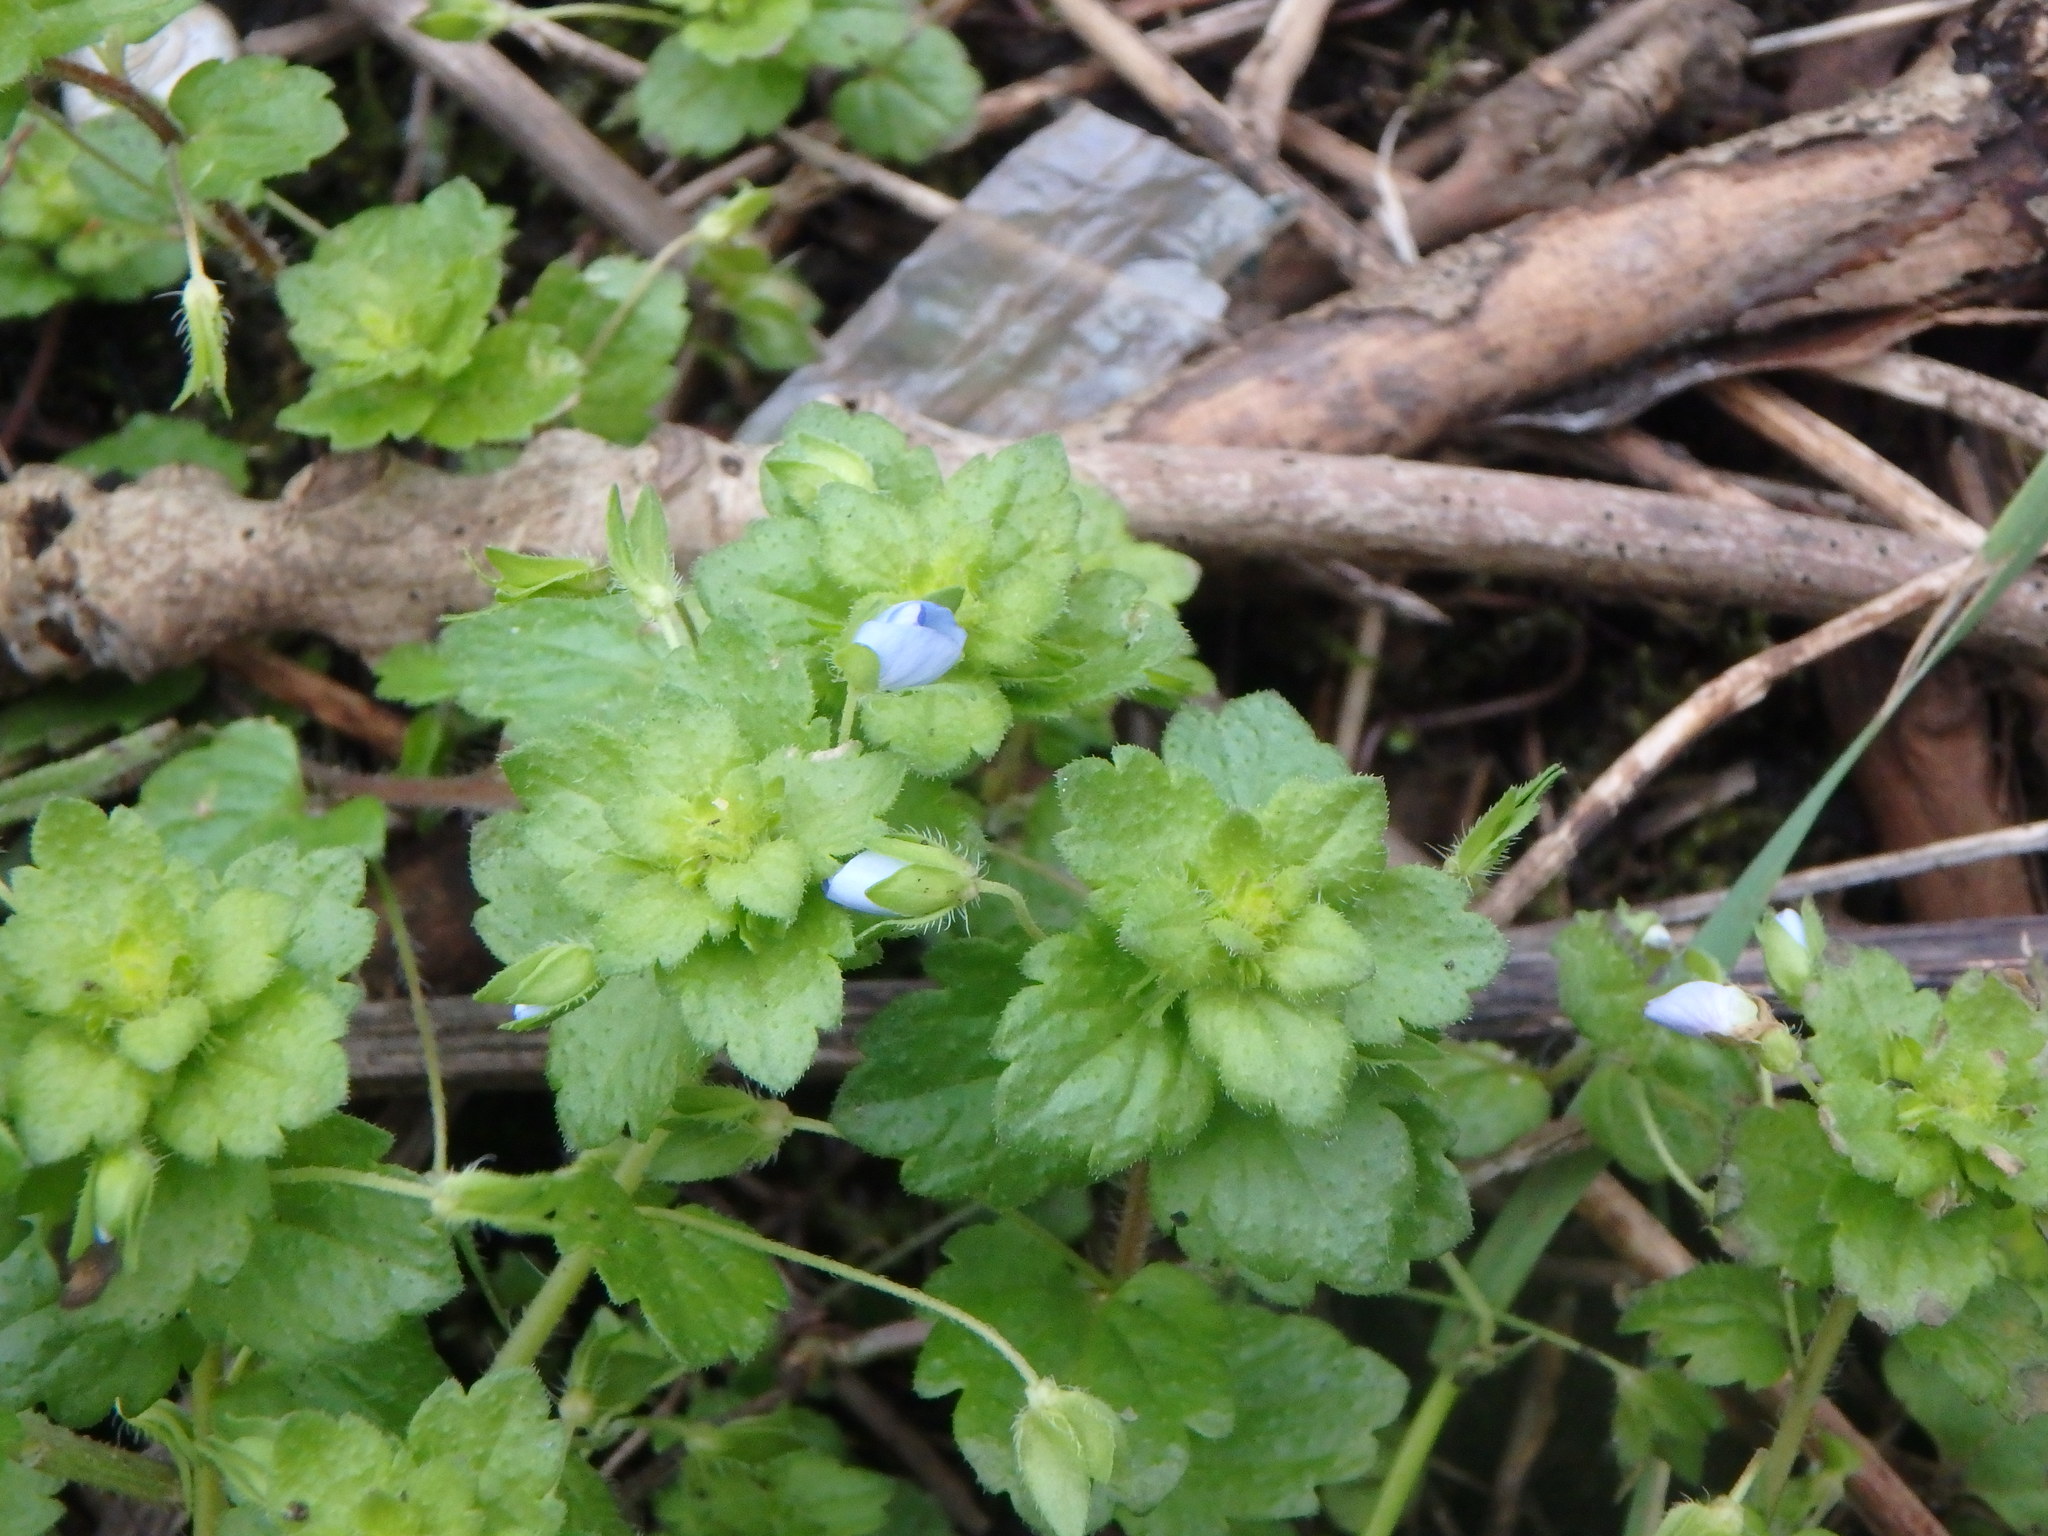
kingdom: Plantae
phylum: Tracheophyta
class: Magnoliopsida
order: Lamiales
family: Plantaginaceae
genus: Veronica
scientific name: Veronica persica
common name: Common field-speedwell
